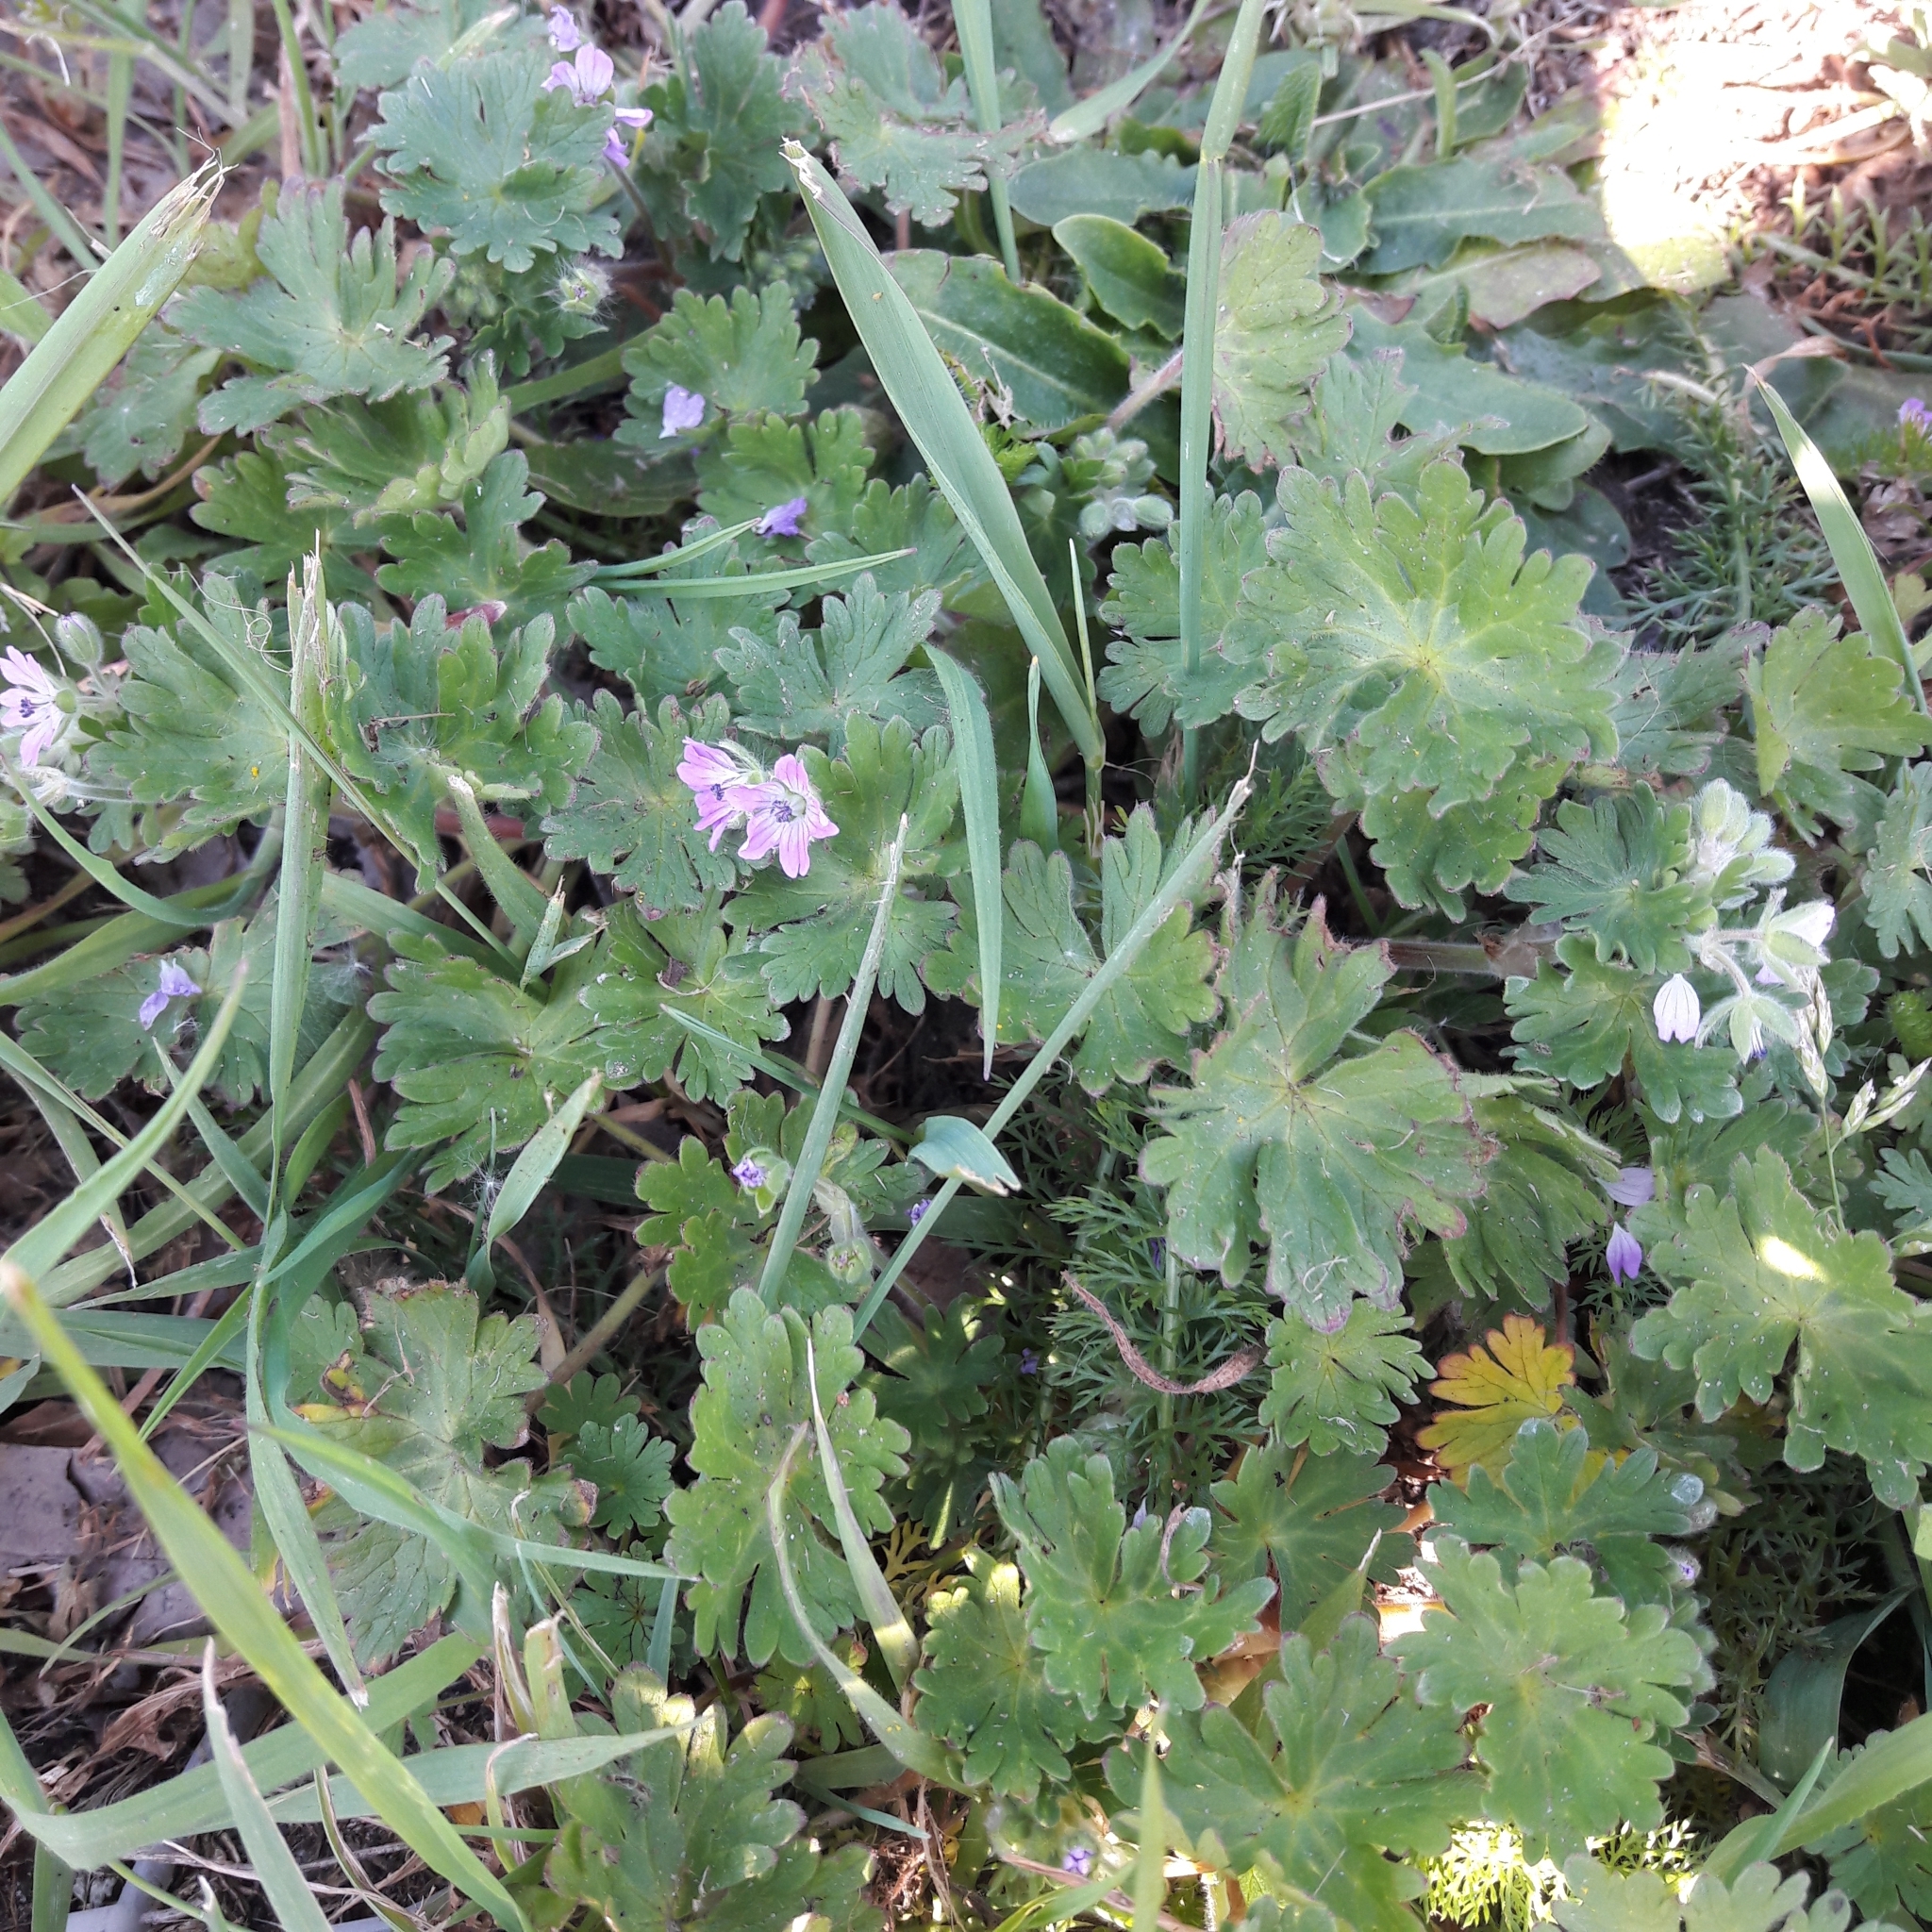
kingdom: Plantae
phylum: Tracheophyta
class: Magnoliopsida
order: Geraniales
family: Geraniaceae
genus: Geranium
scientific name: Geranium molle
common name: Dove's-foot crane's-bill
